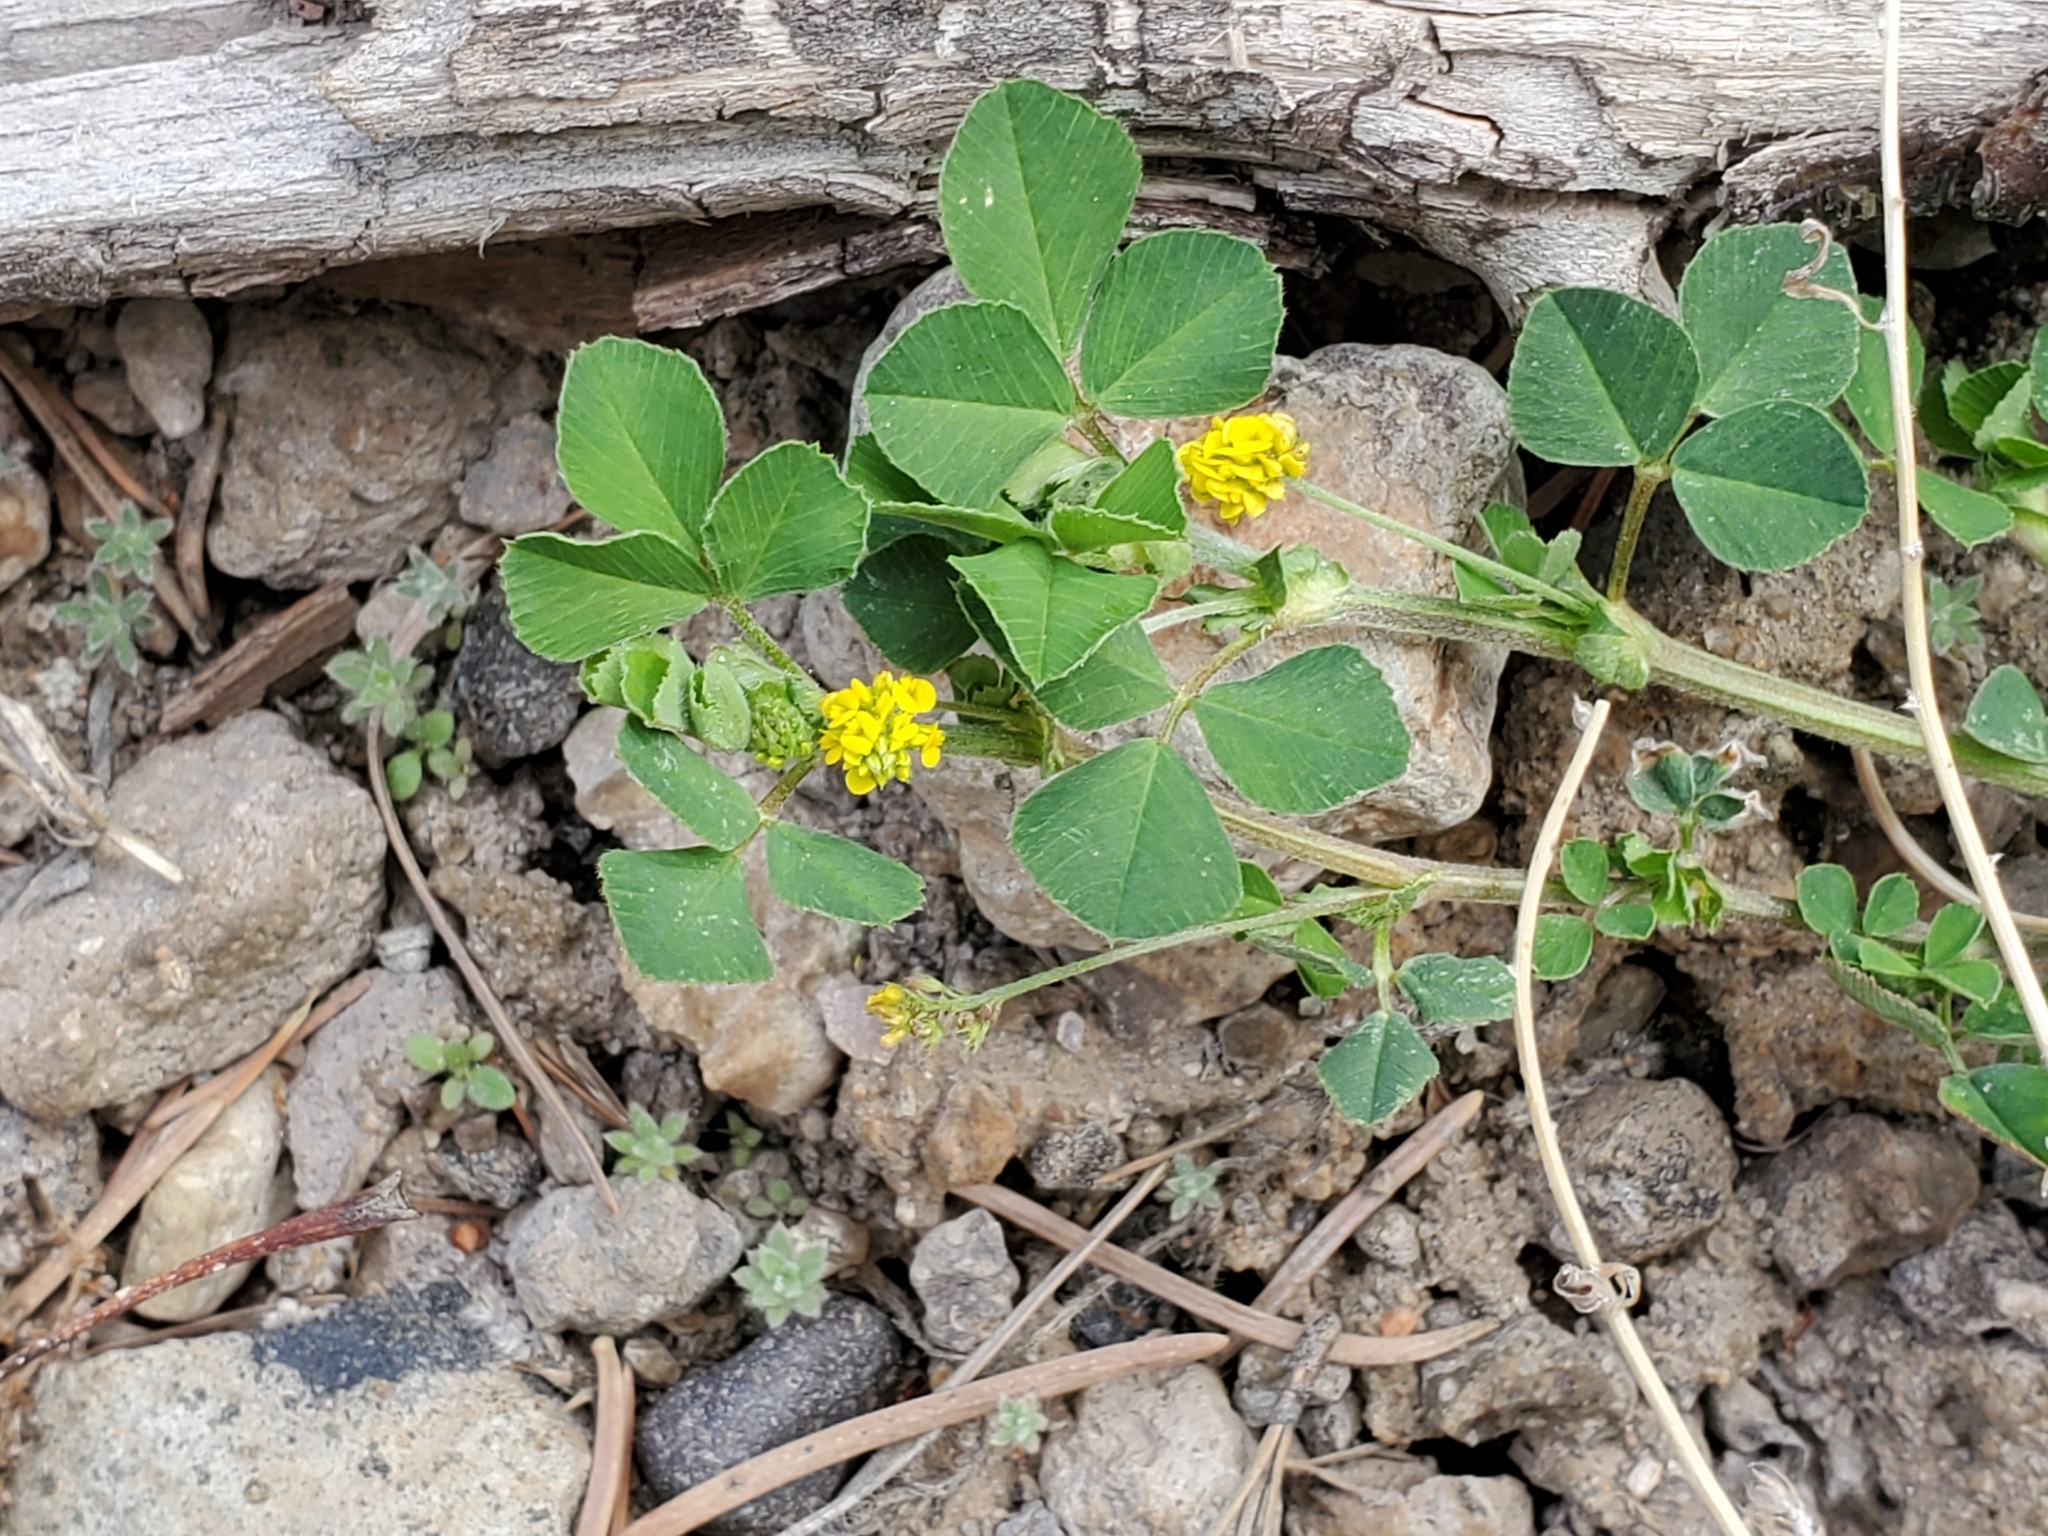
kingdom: Plantae
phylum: Tracheophyta
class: Magnoliopsida
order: Fabales
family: Fabaceae
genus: Medicago
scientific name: Medicago lupulina
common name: Black medick
